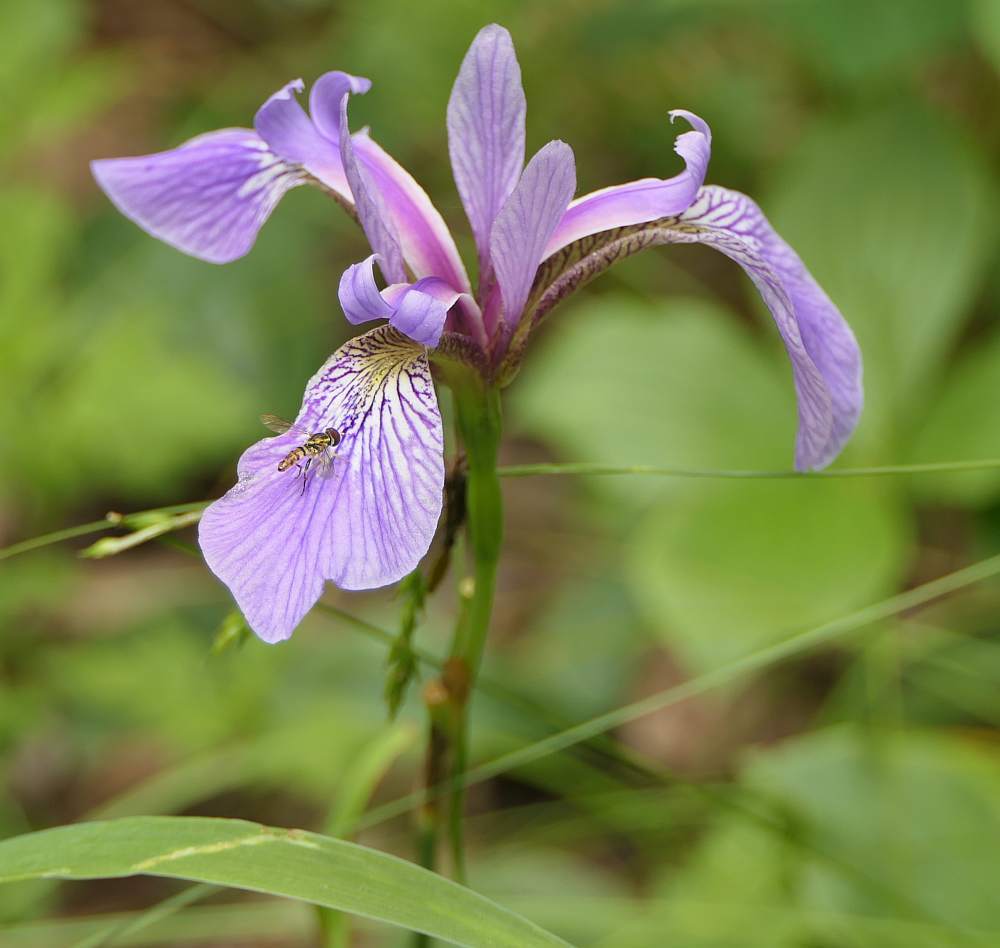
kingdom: Plantae
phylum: Tracheophyta
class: Liliopsida
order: Asparagales
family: Iridaceae
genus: Iris
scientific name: Iris versicolor
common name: Purple iris
